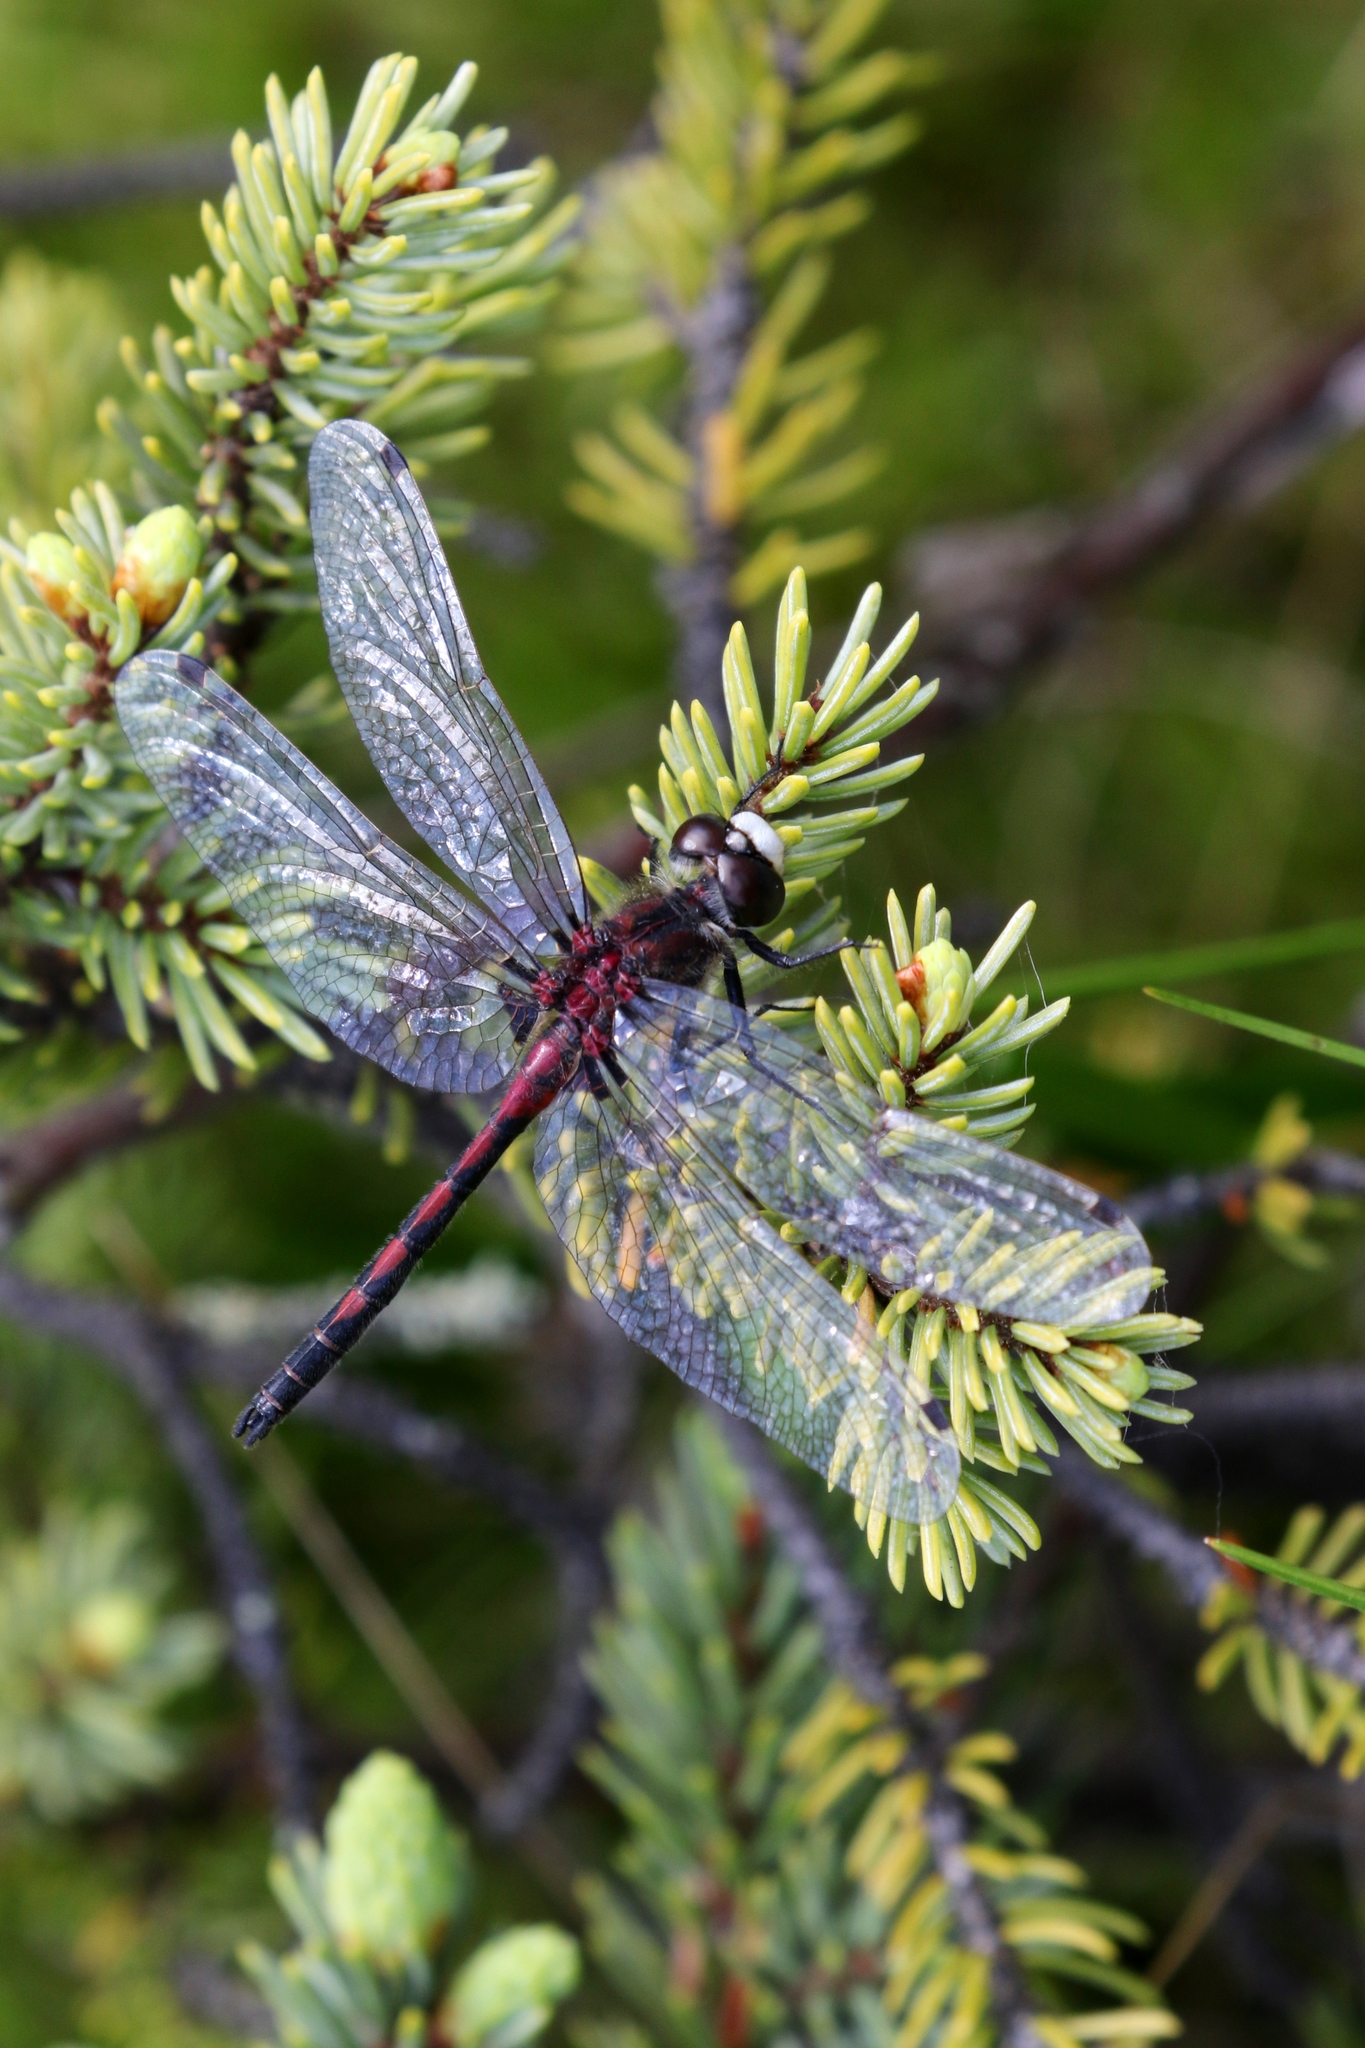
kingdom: Animalia
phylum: Arthropoda
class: Insecta
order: Odonata
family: Libellulidae
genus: Leucorrhinia
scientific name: Leucorrhinia hudsonica
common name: Hudsonian whiteface
